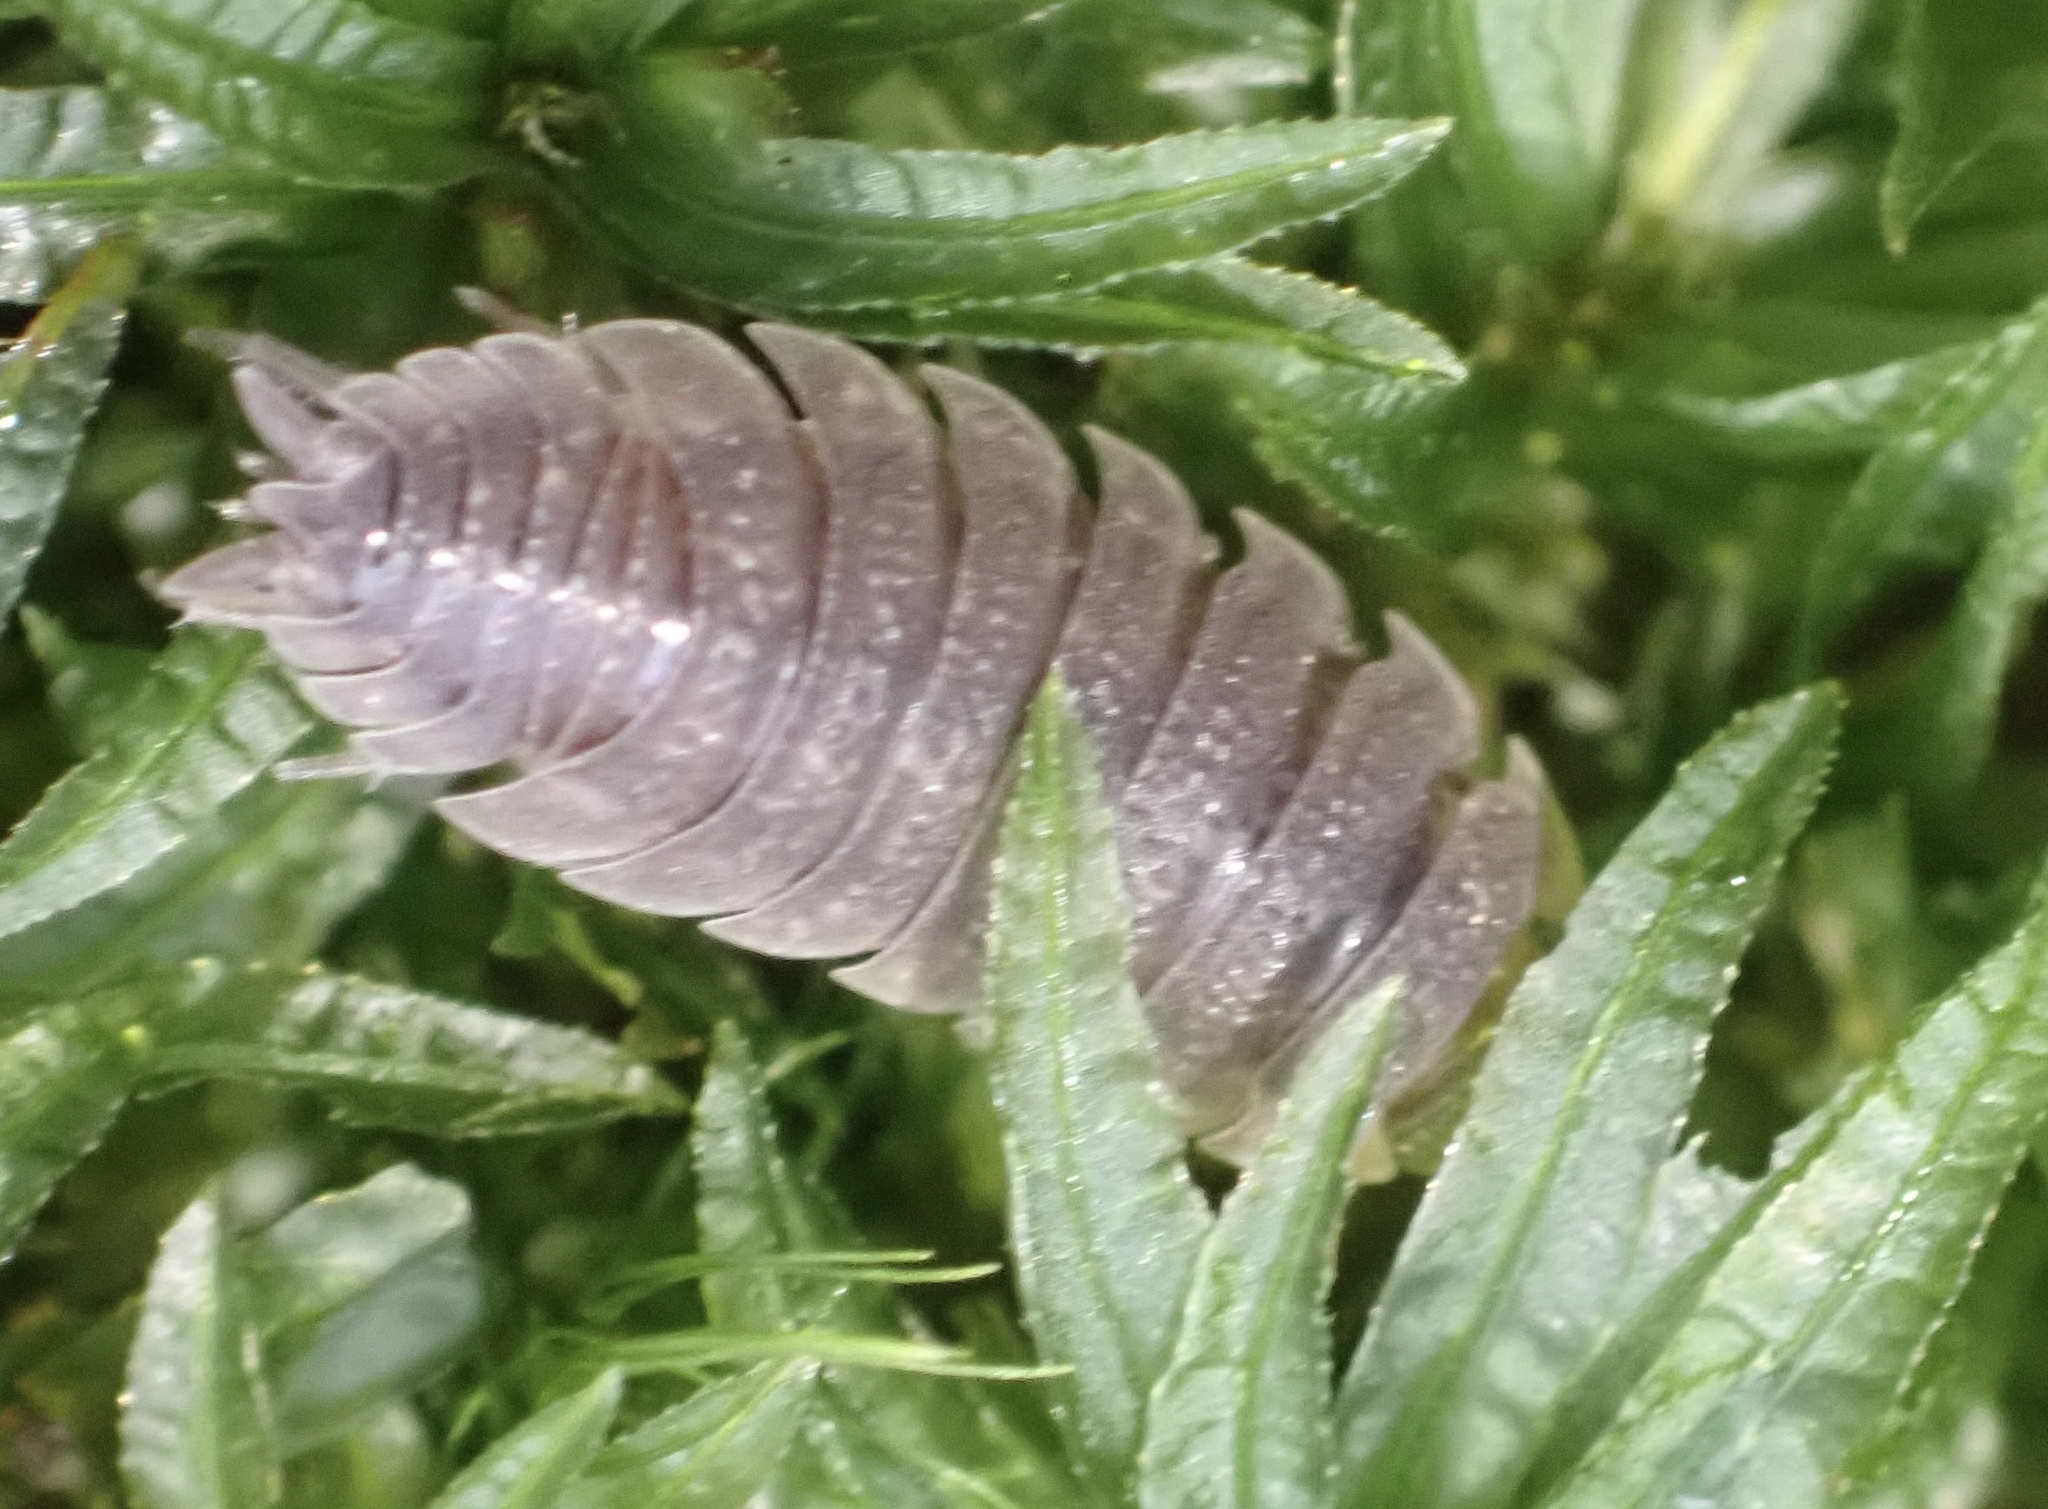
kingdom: Animalia
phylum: Arthropoda
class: Malacostraca
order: Isopoda
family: Porcellionidae
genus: Porcellio
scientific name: Porcellio scaber
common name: Common rough woodlouse
